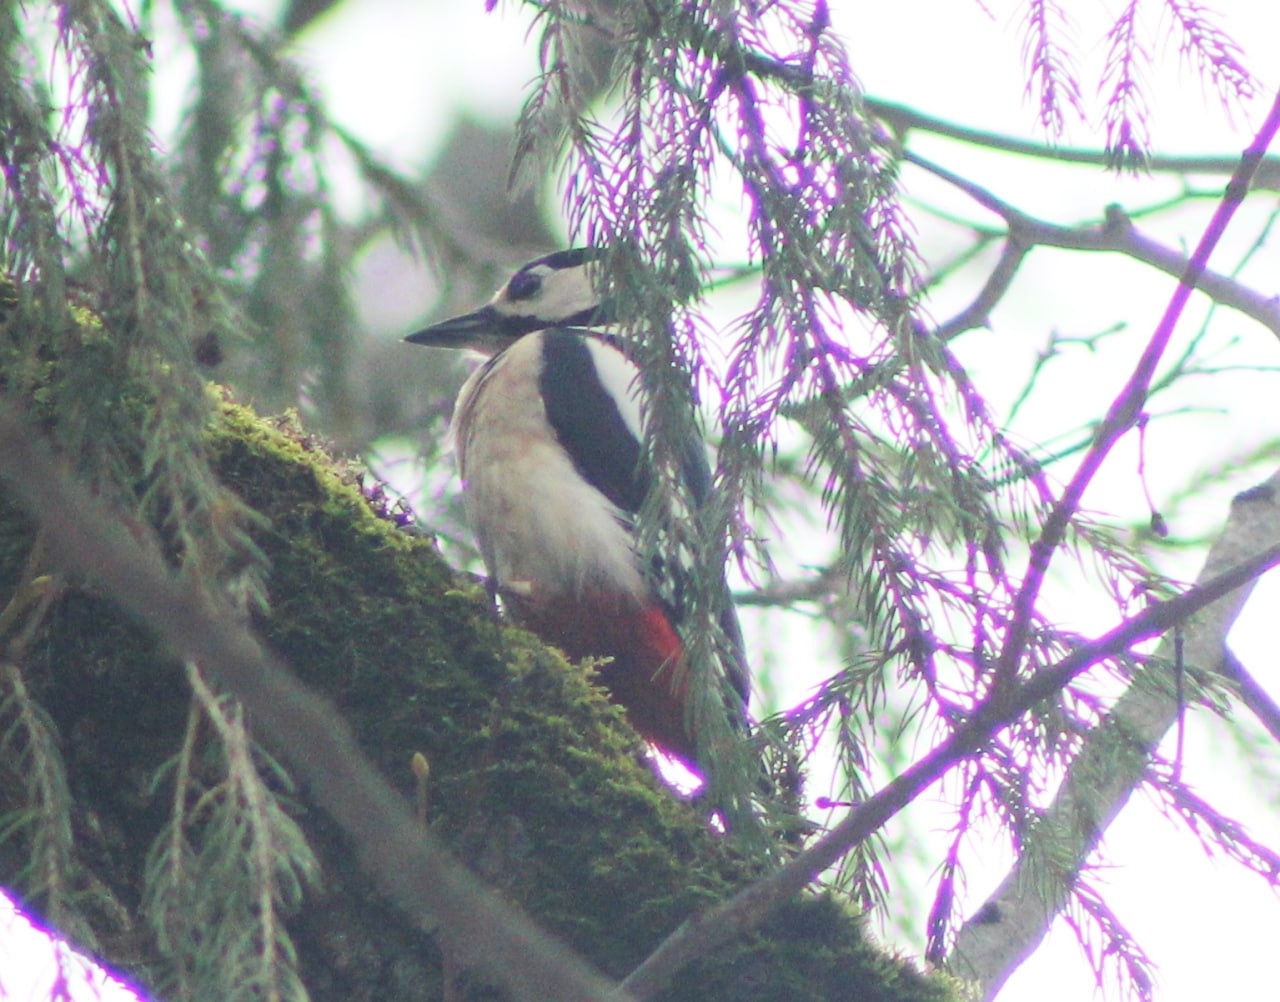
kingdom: Animalia
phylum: Chordata
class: Aves
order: Piciformes
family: Picidae
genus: Dendrocopos
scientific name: Dendrocopos major
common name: Great spotted woodpecker
